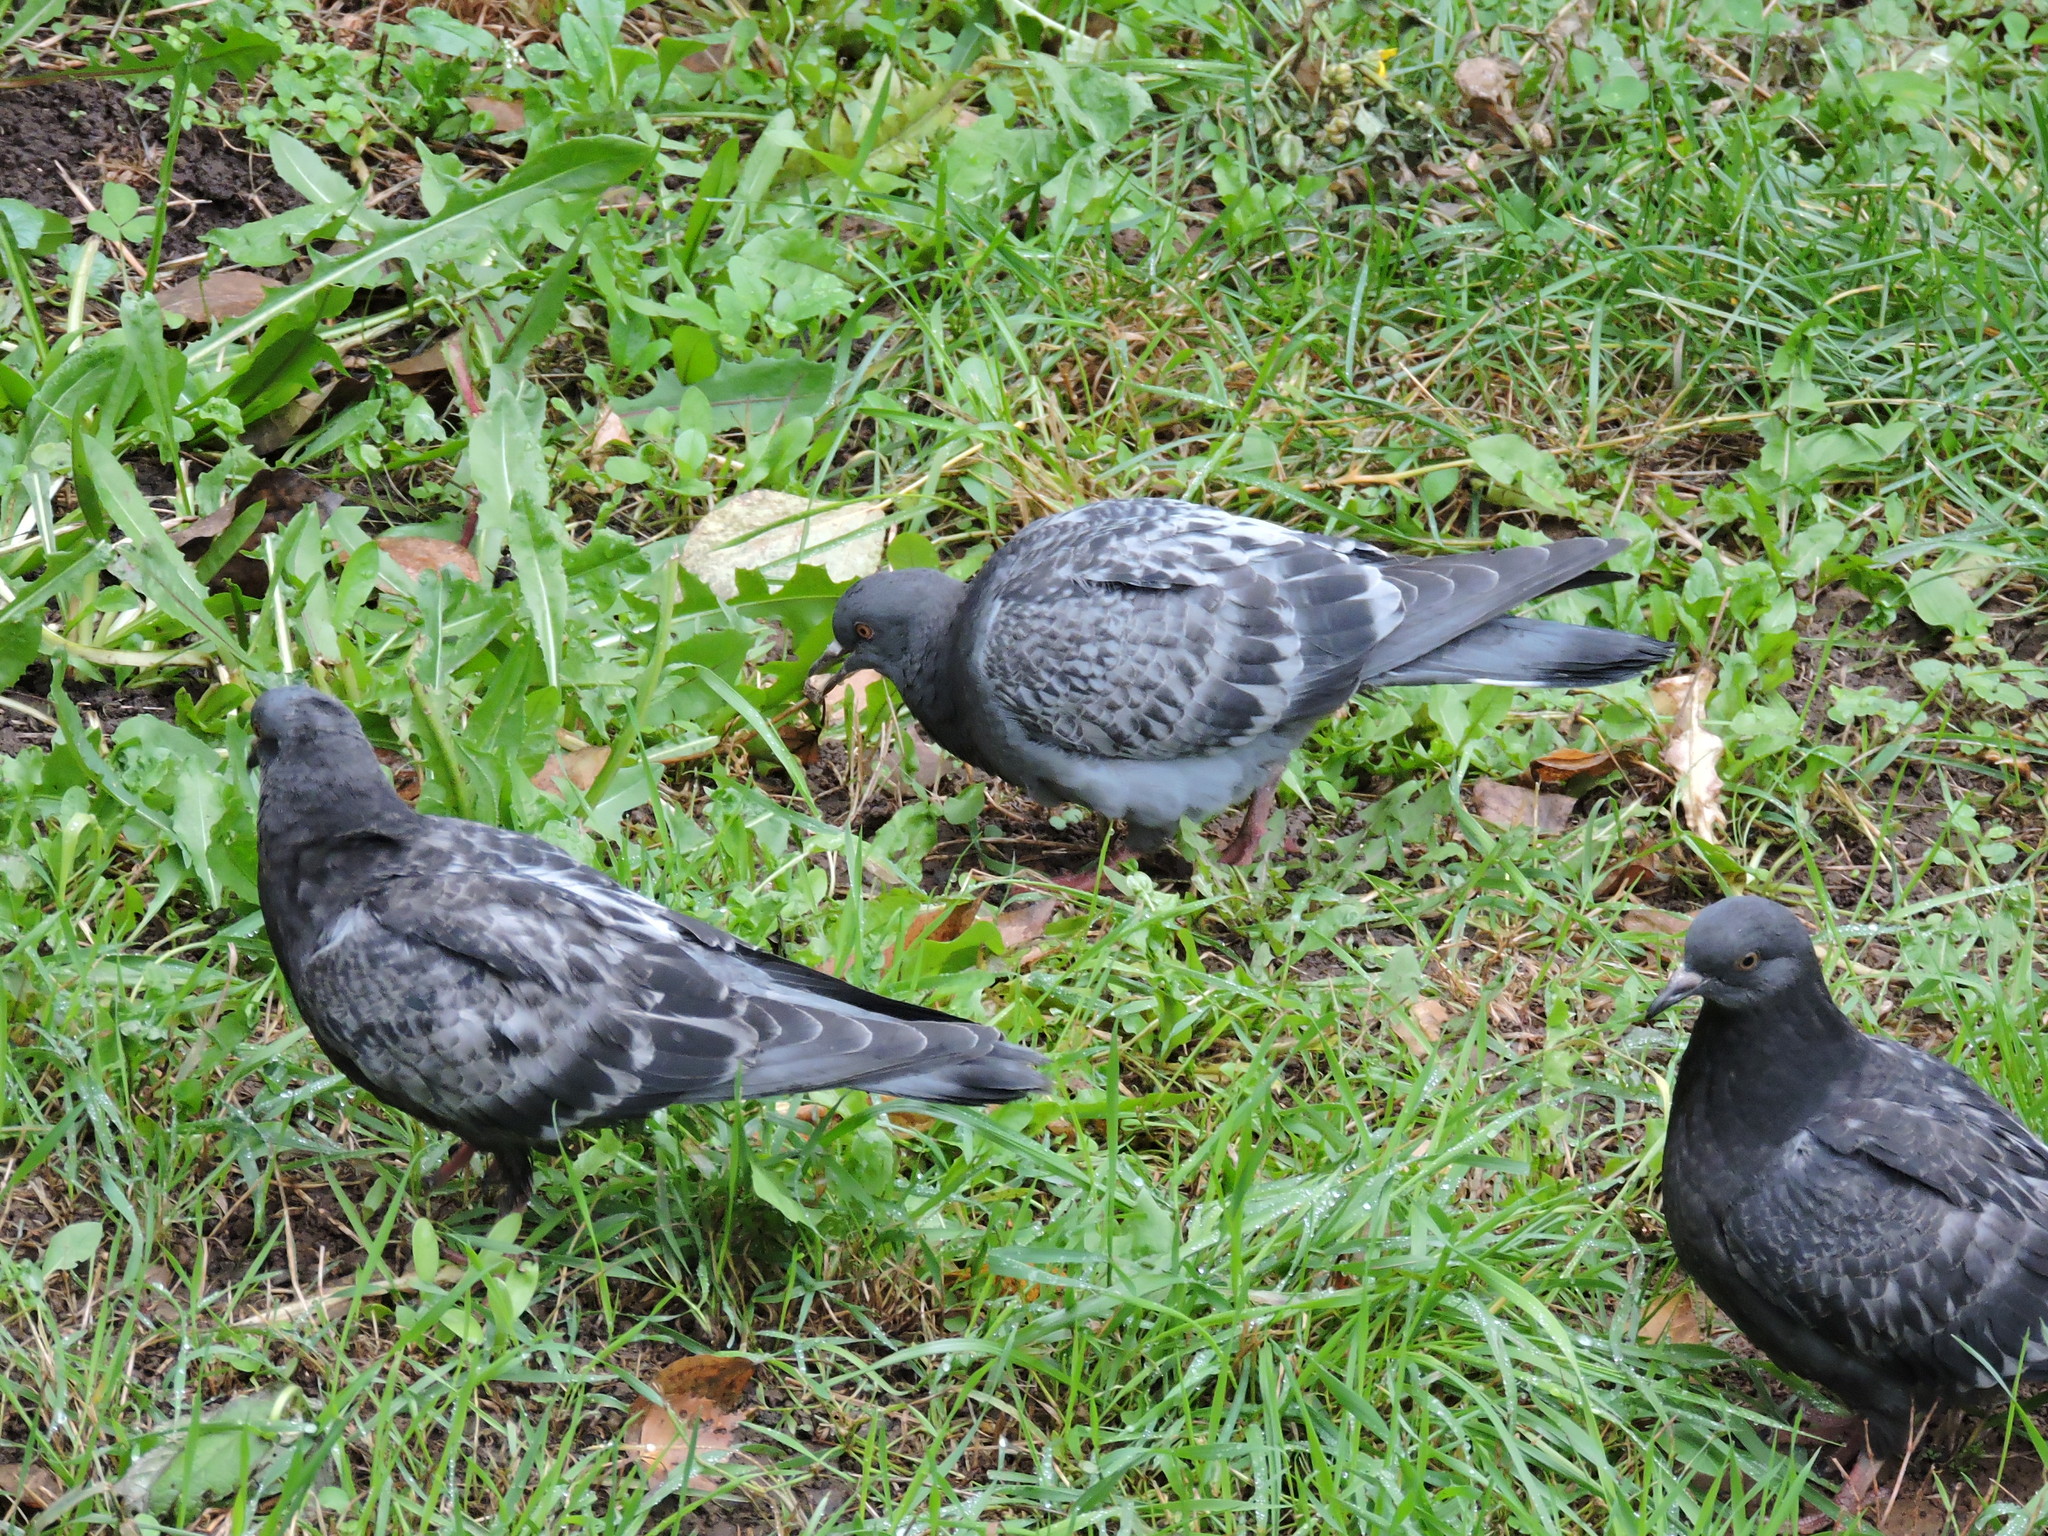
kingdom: Animalia
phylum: Chordata
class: Aves
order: Columbiformes
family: Columbidae
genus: Columba
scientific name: Columba livia
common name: Rock pigeon
